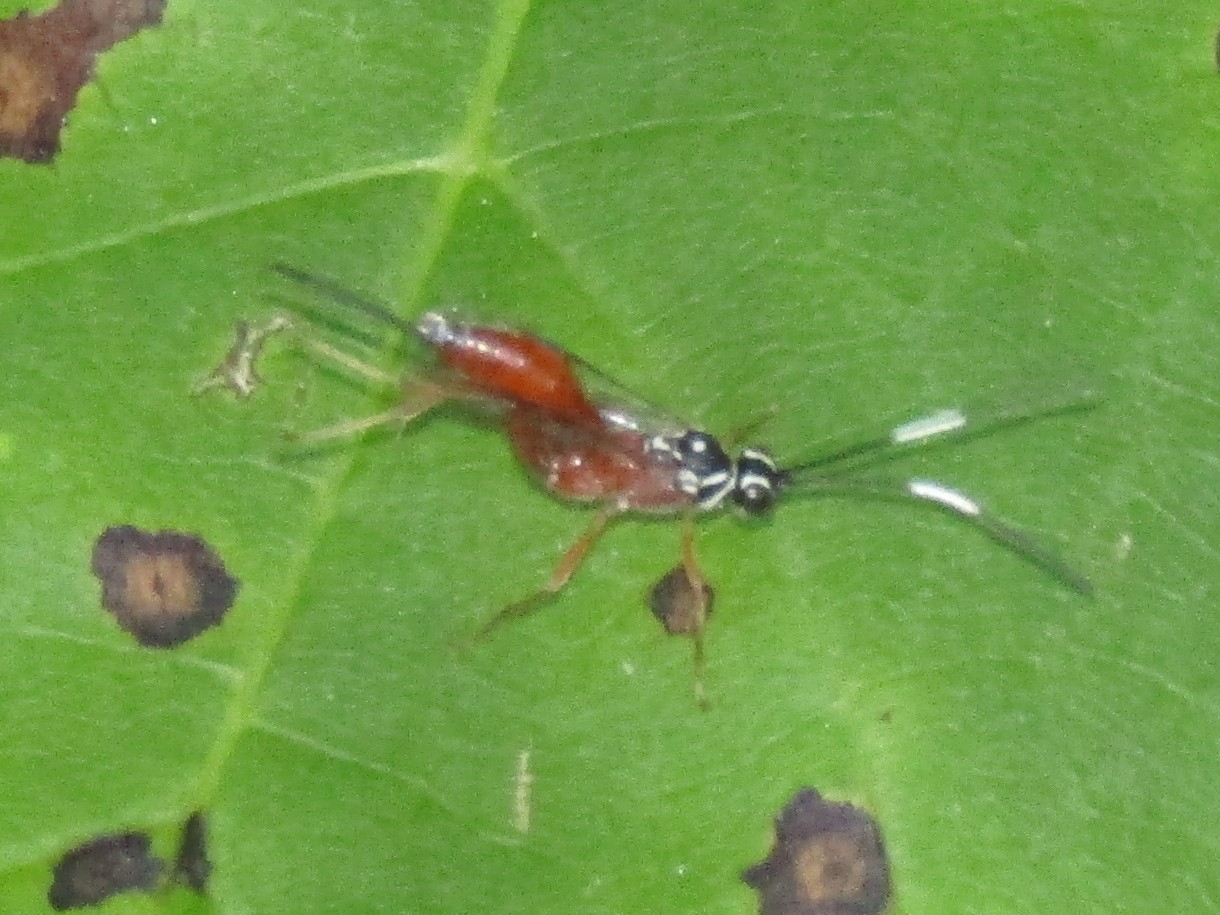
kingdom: Animalia
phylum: Arthropoda
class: Insecta
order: Hymenoptera
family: Ichneumonidae
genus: Mesostenus
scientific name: Mesostenus thoracicus
